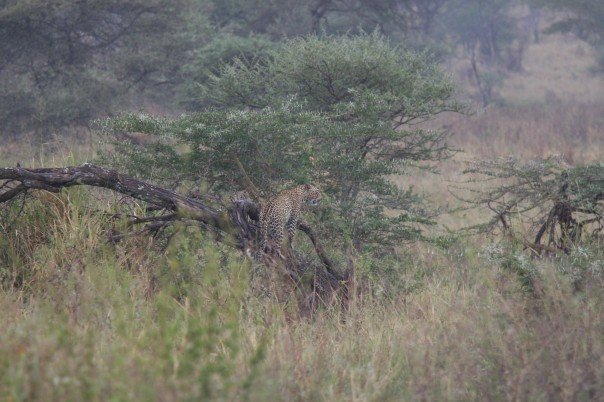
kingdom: Animalia
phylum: Chordata
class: Mammalia
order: Carnivora
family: Felidae
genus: Panthera
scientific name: Panthera pardus
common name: Leopard
